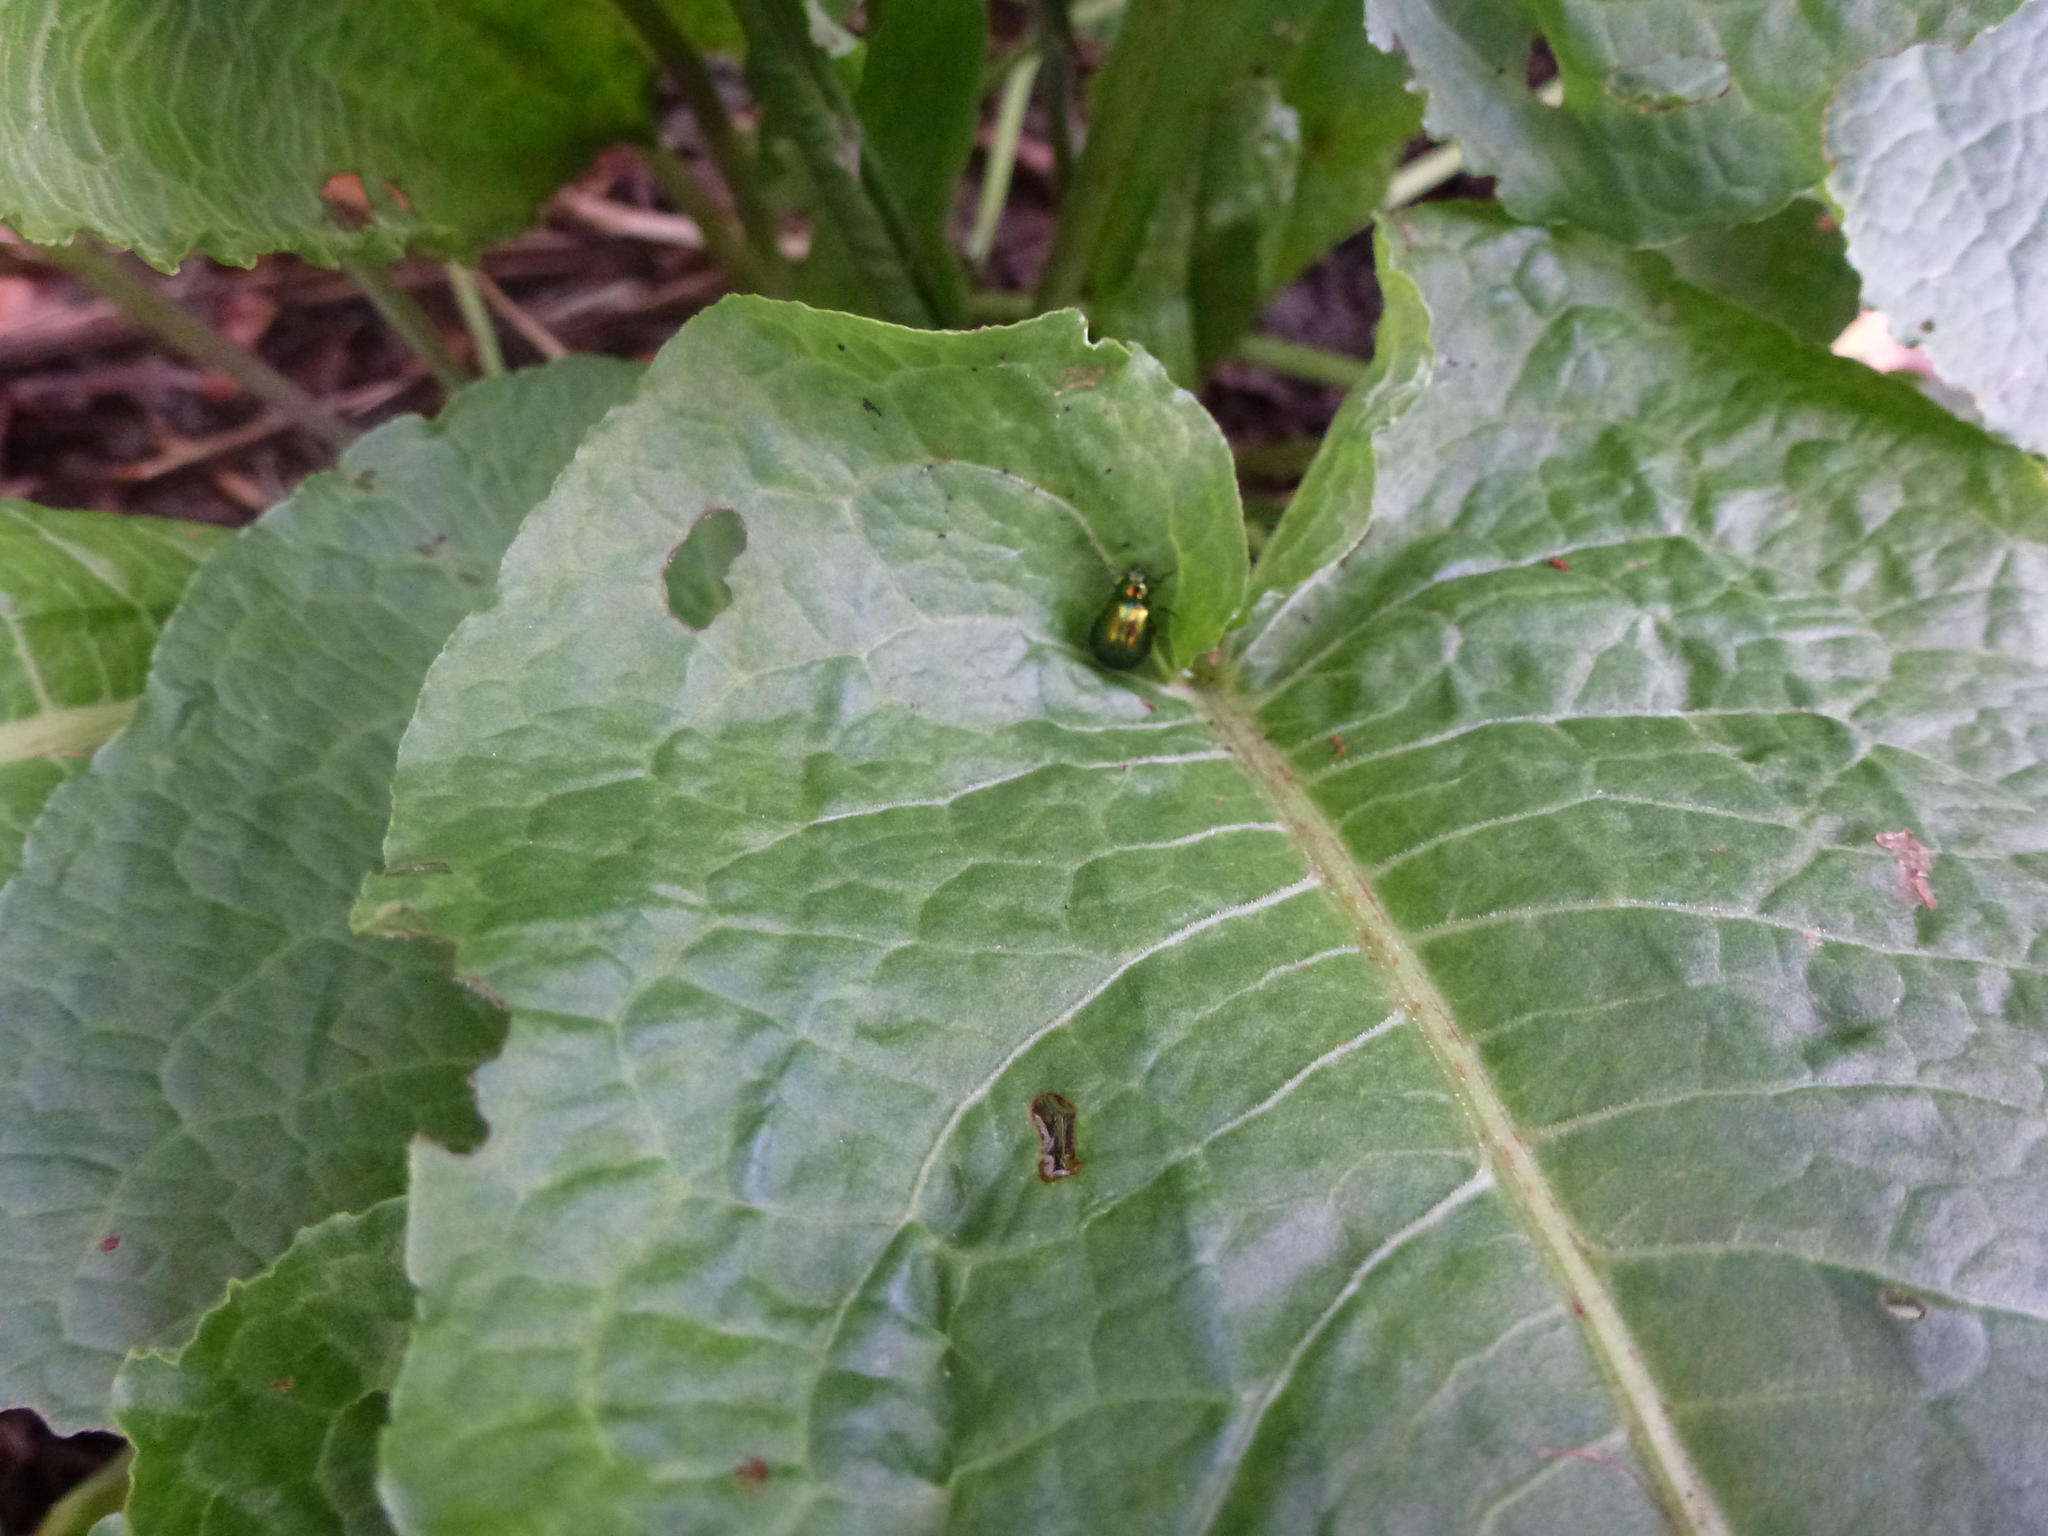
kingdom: Animalia
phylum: Arthropoda
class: Insecta
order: Coleoptera
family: Chrysomelidae
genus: Gastrophysa
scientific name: Gastrophysa viridula
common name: Green dock beetle
